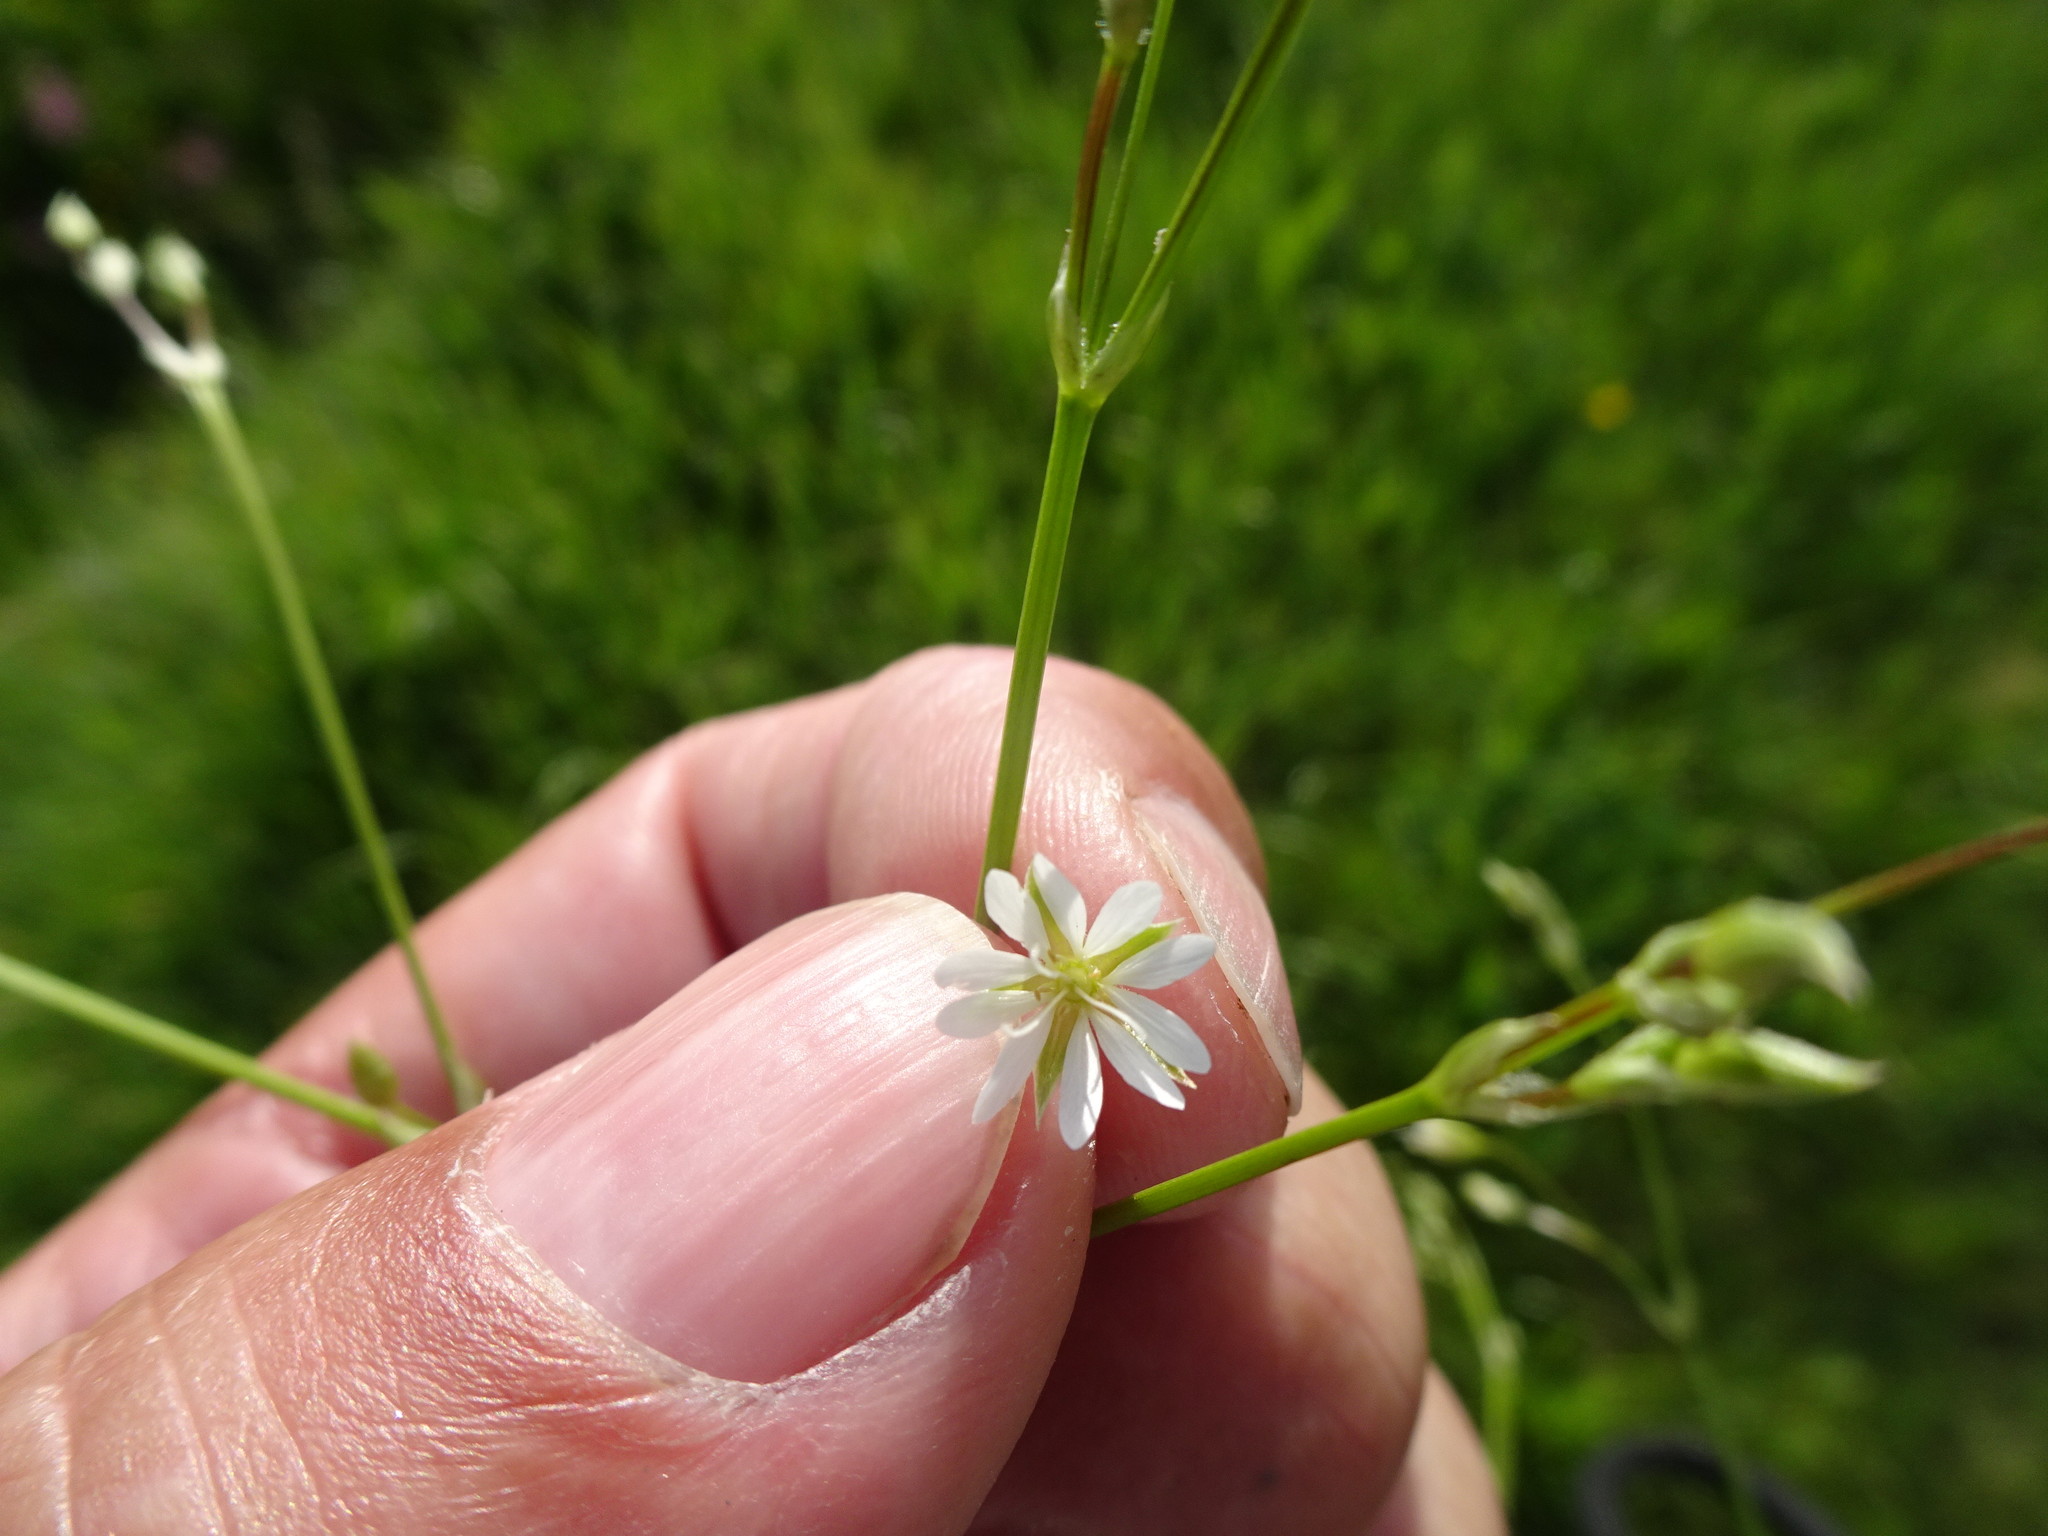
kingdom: Plantae
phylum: Tracheophyta
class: Magnoliopsida
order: Caryophyllales
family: Caryophyllaceae
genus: Stellaria
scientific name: Stellaria graminea
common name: Grass-like starwort
